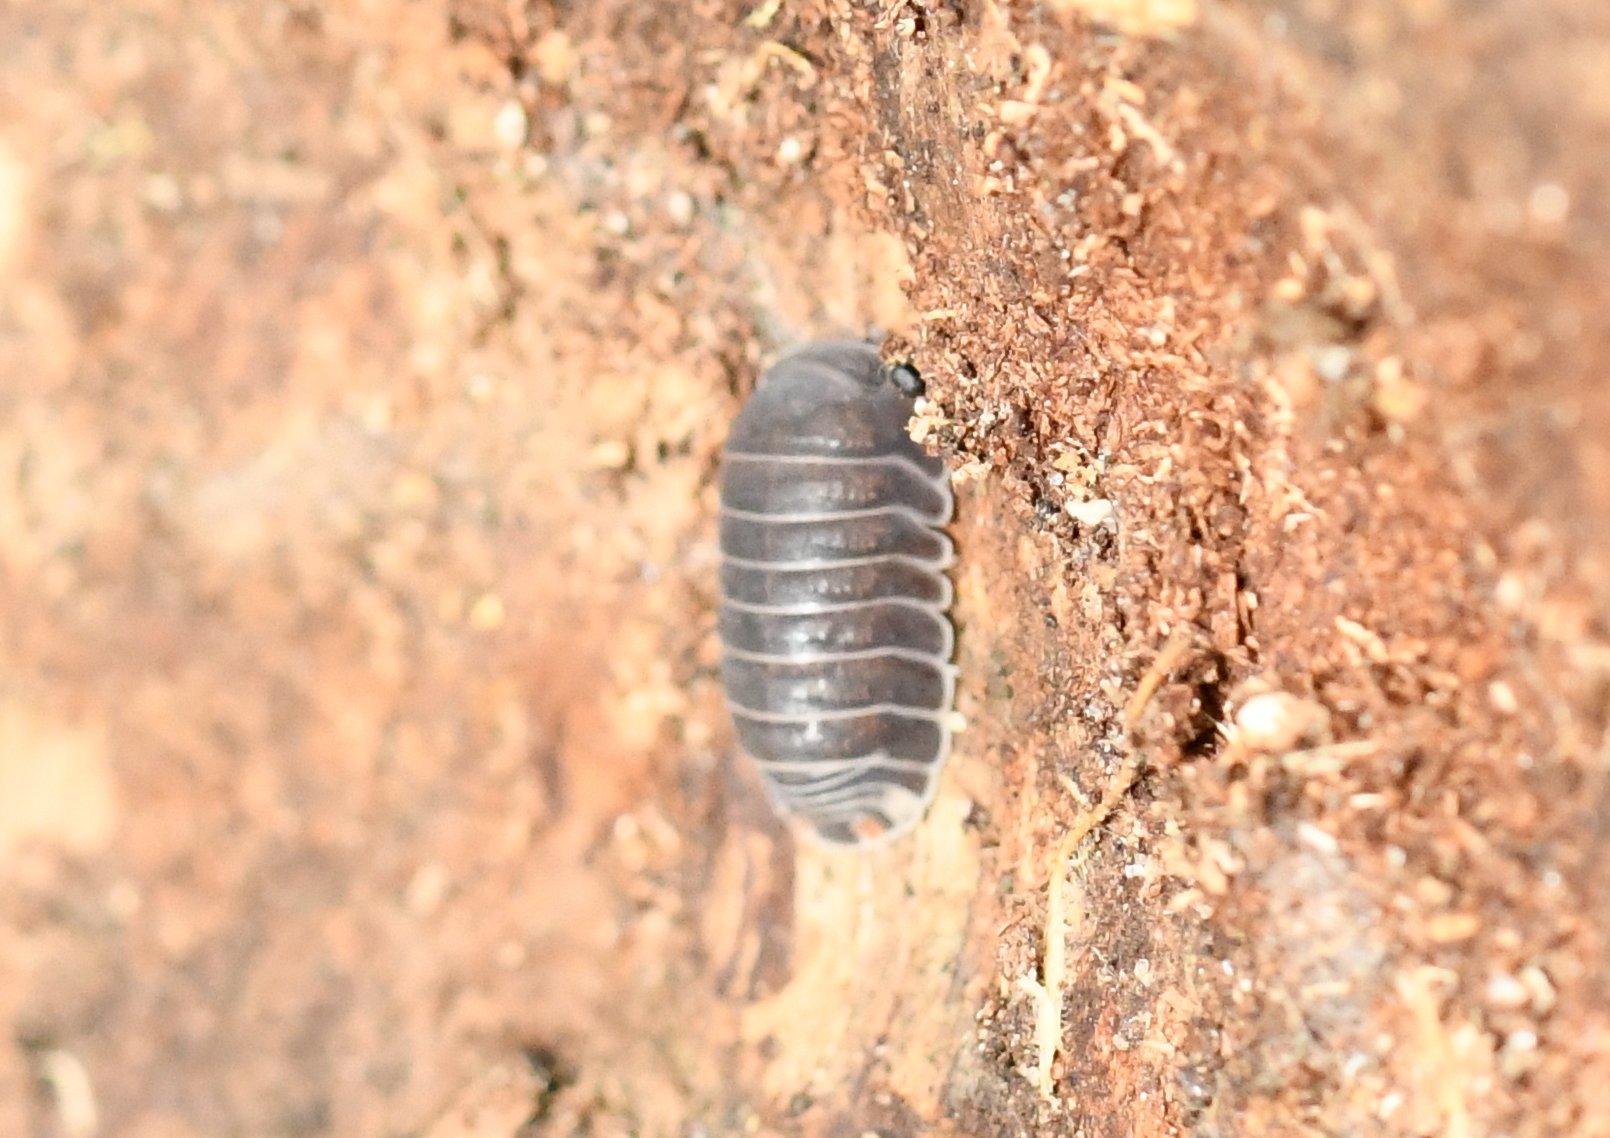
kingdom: Animalia
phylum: Arthropoda
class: Malacostraca
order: Isopoda
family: Armadillidae
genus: Cubaris
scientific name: Cubaris murina
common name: Pillbug
